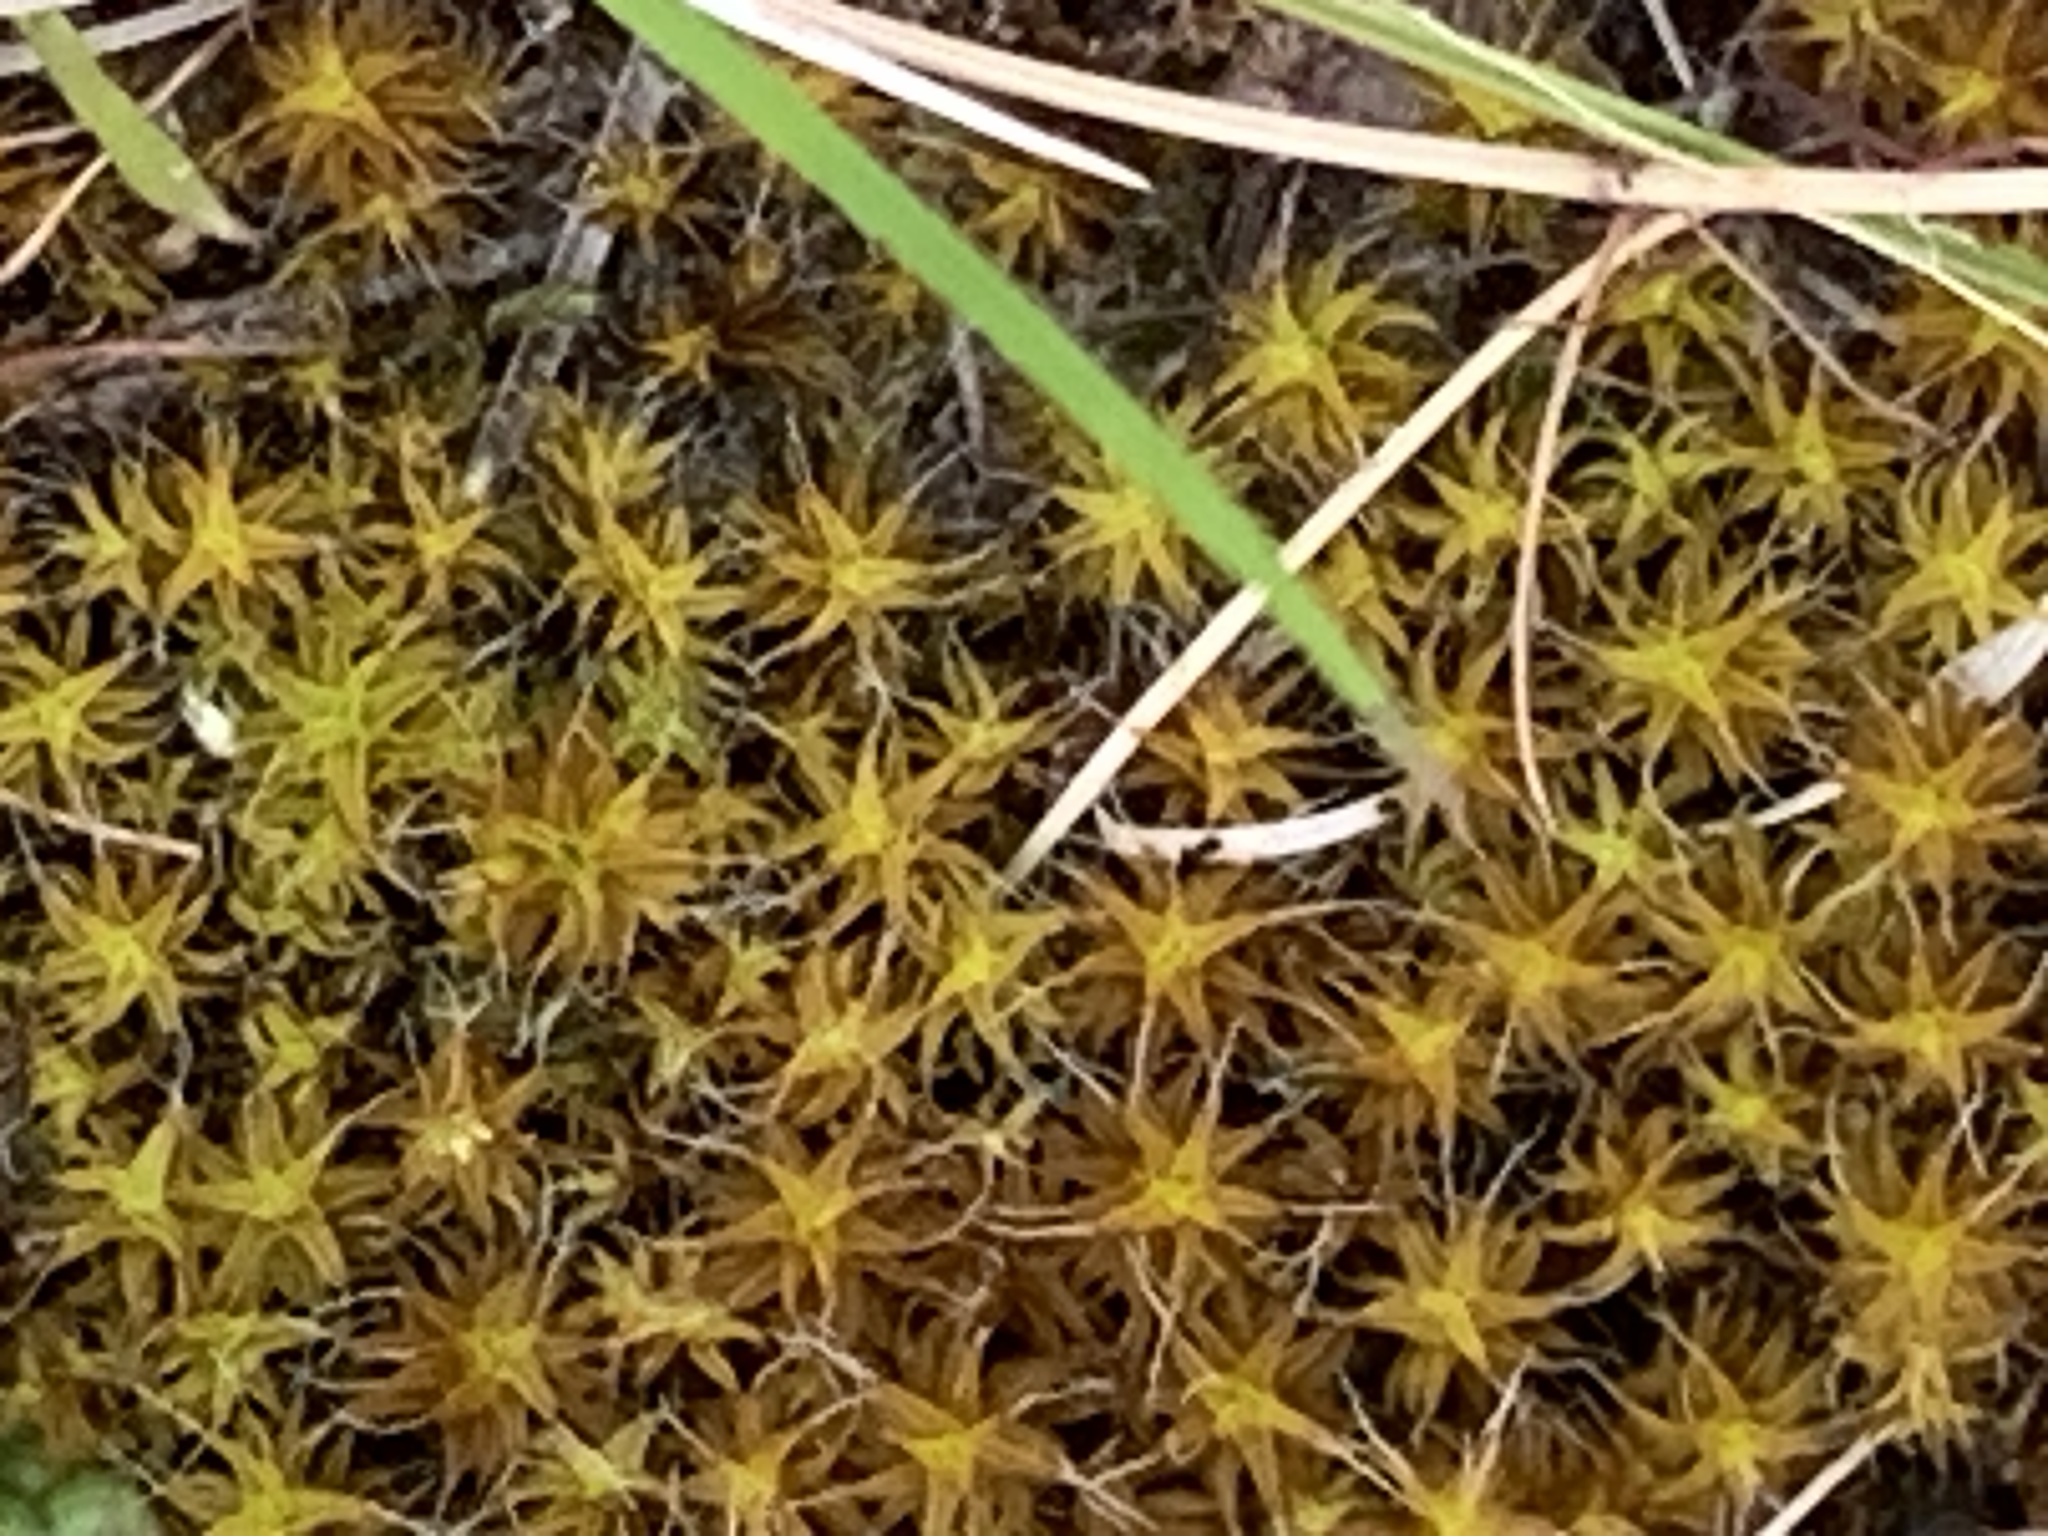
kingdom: Plantae
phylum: Bryophyta
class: Bryopsida
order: Pottiales
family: Pottiaceae
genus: Syntrichia
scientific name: Syntrichia ruralis
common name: Sidewalk screw moss
